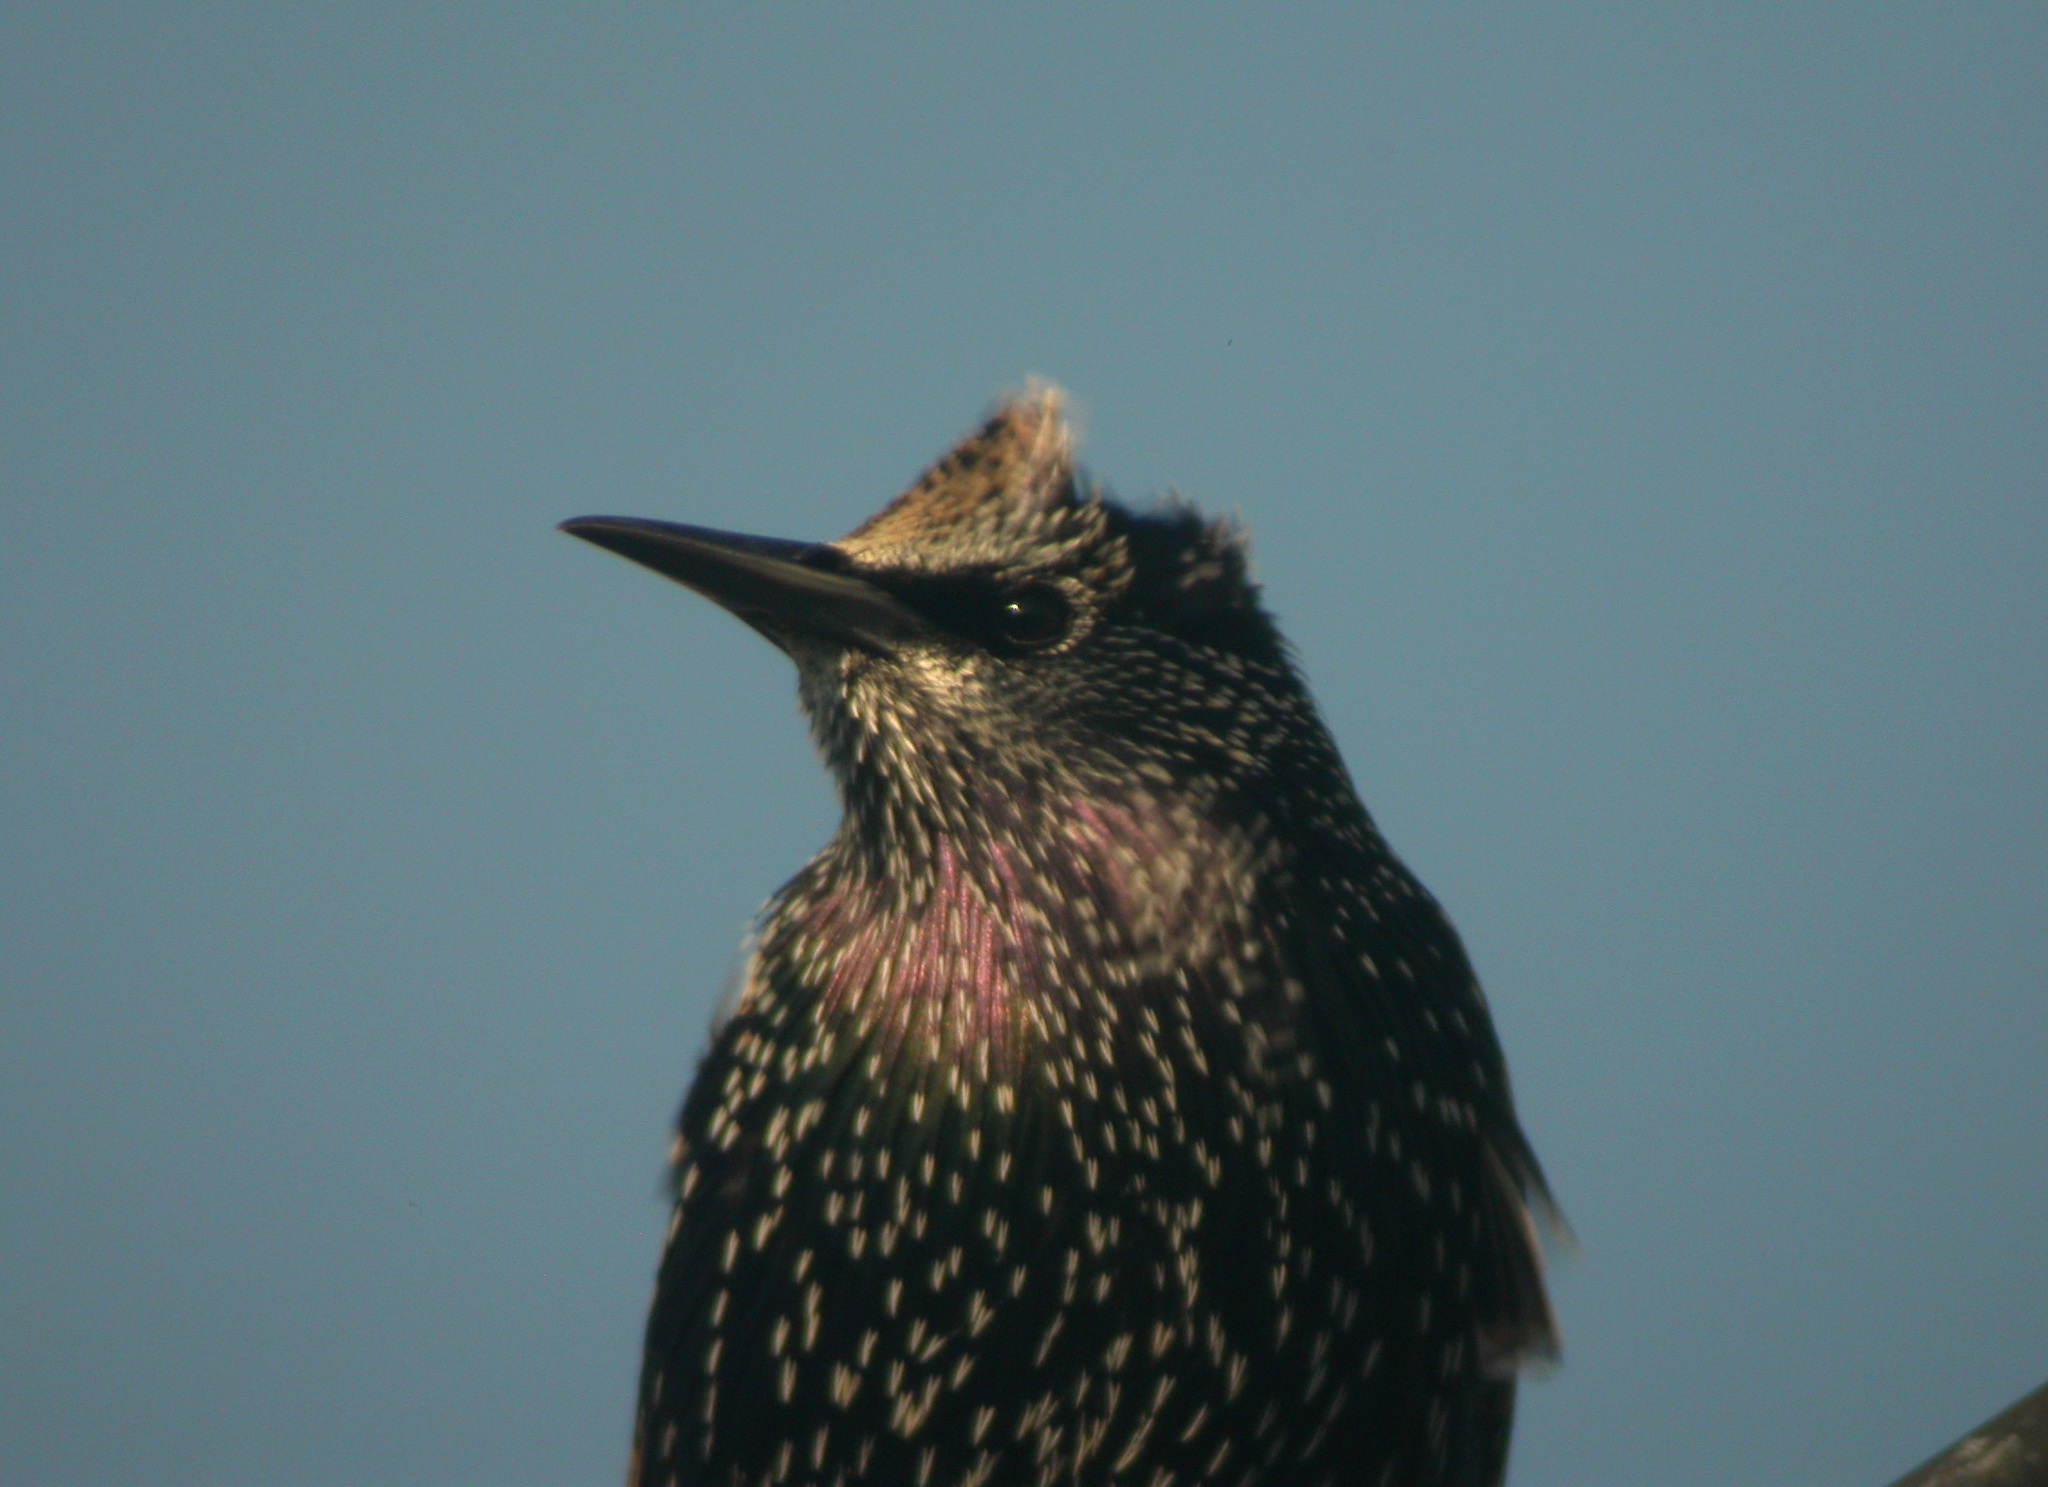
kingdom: Animalia
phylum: Chordata
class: Aves
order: Passeriformes
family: Sturnidae
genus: Sturnus
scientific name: Sturnus vulgaris
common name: Common starling
